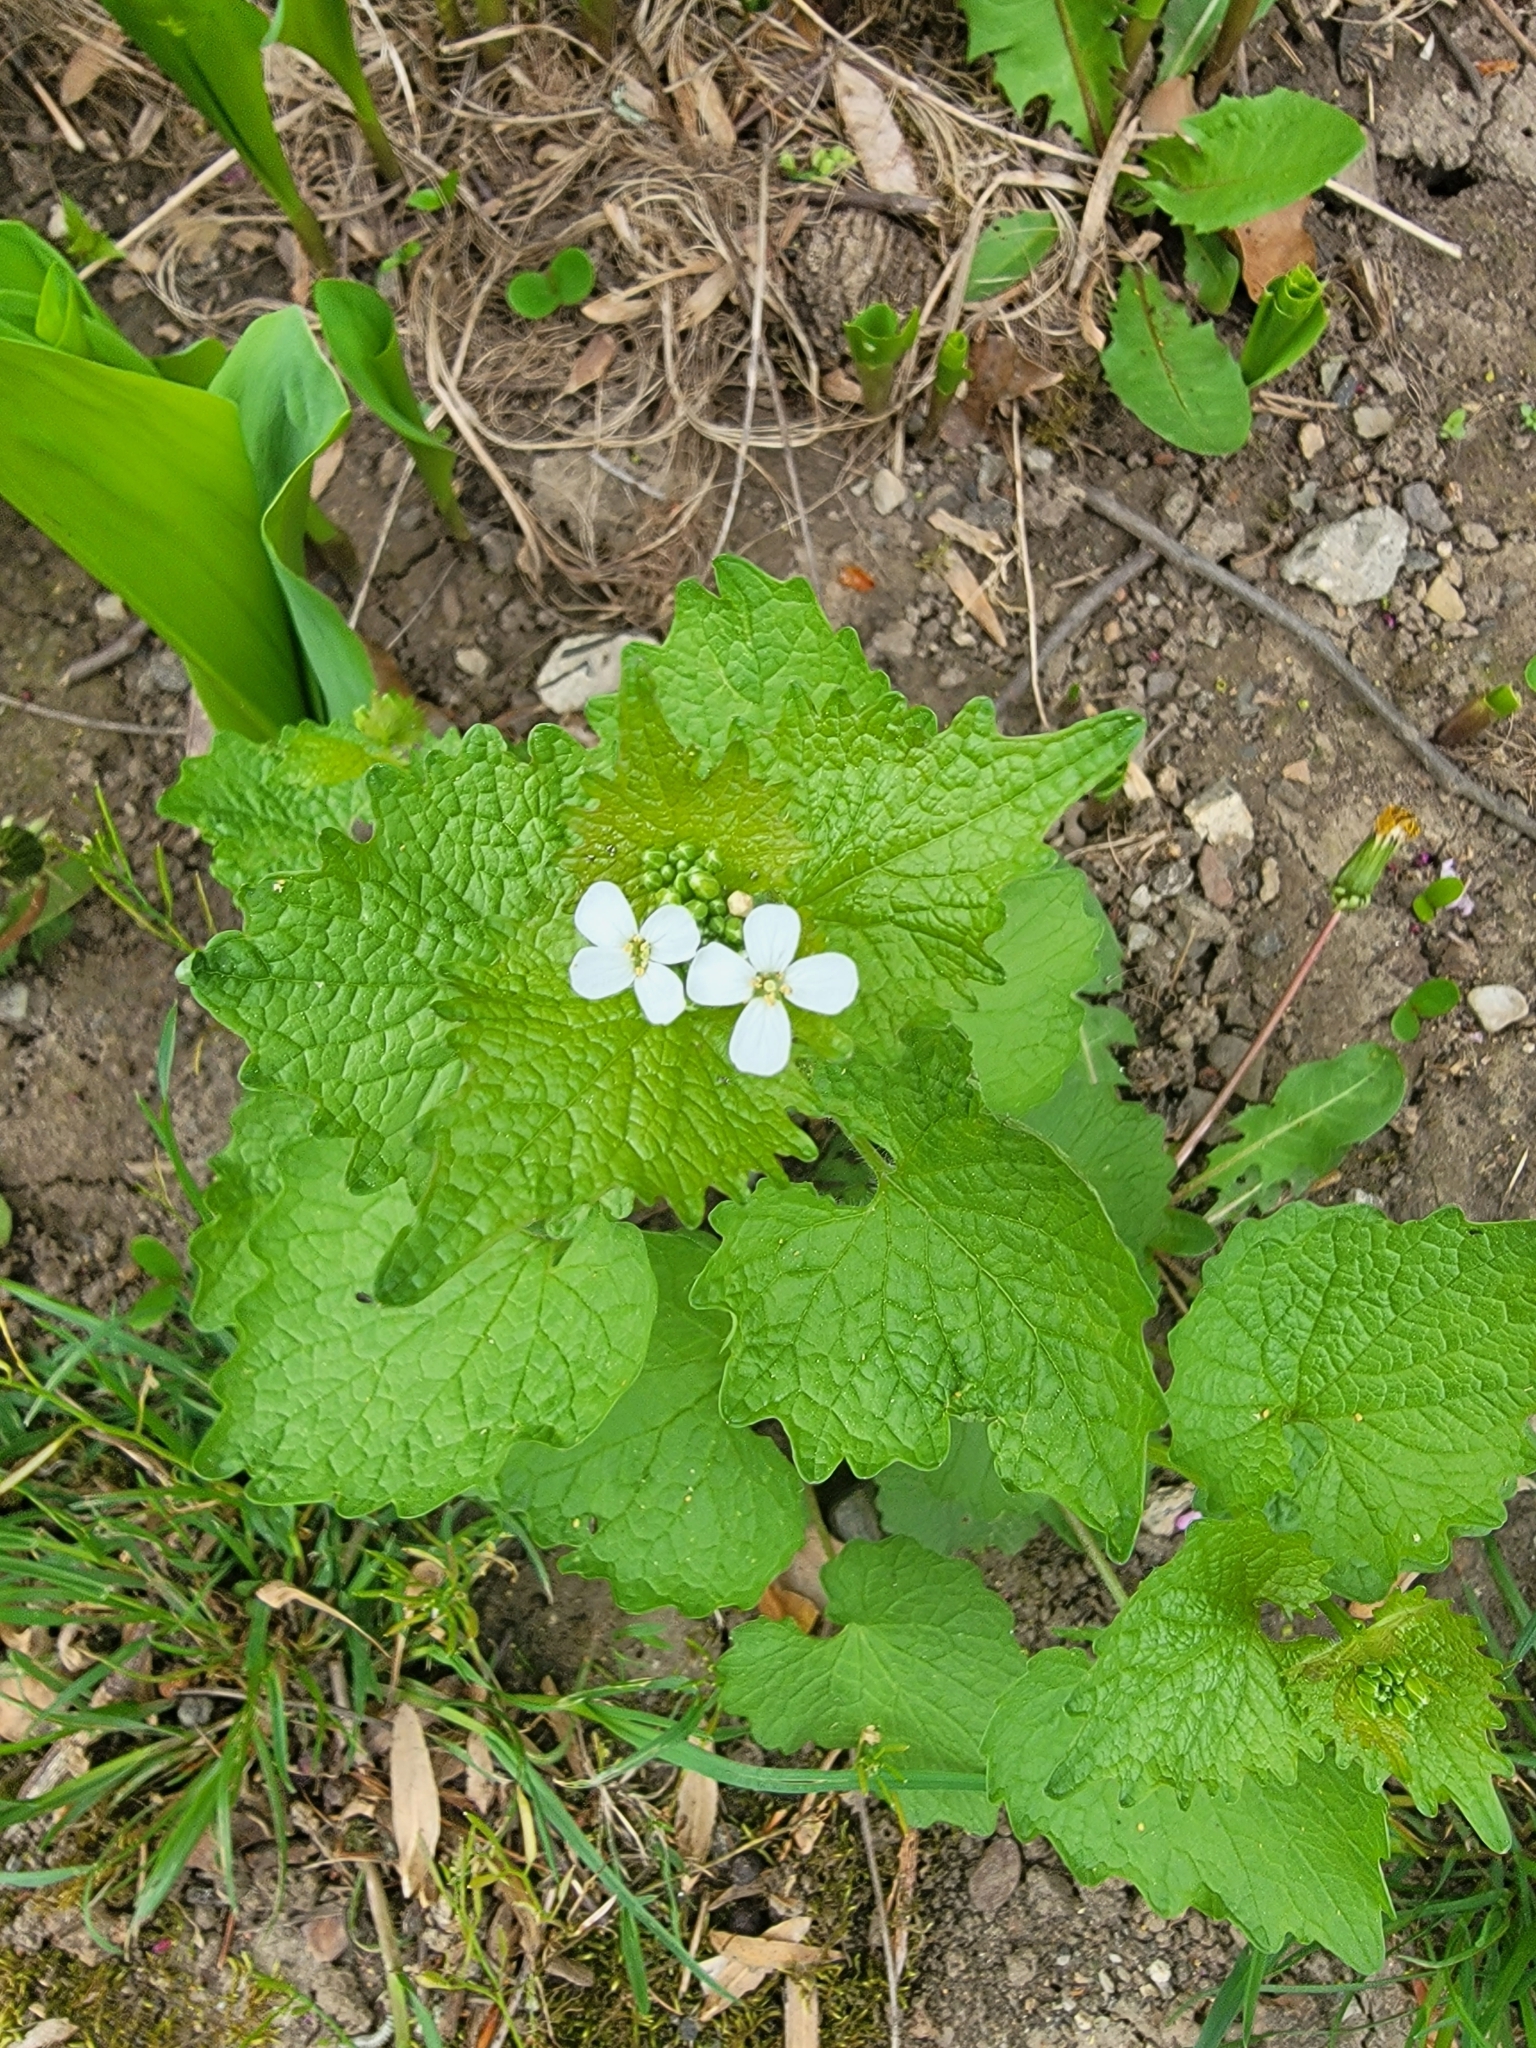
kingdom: Plantae
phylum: Tracheophyta
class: Magnoliopsida
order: Brassicales
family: Brassicaceae
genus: Alliaria
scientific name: Alliaria petiolata
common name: Garlic mustard
